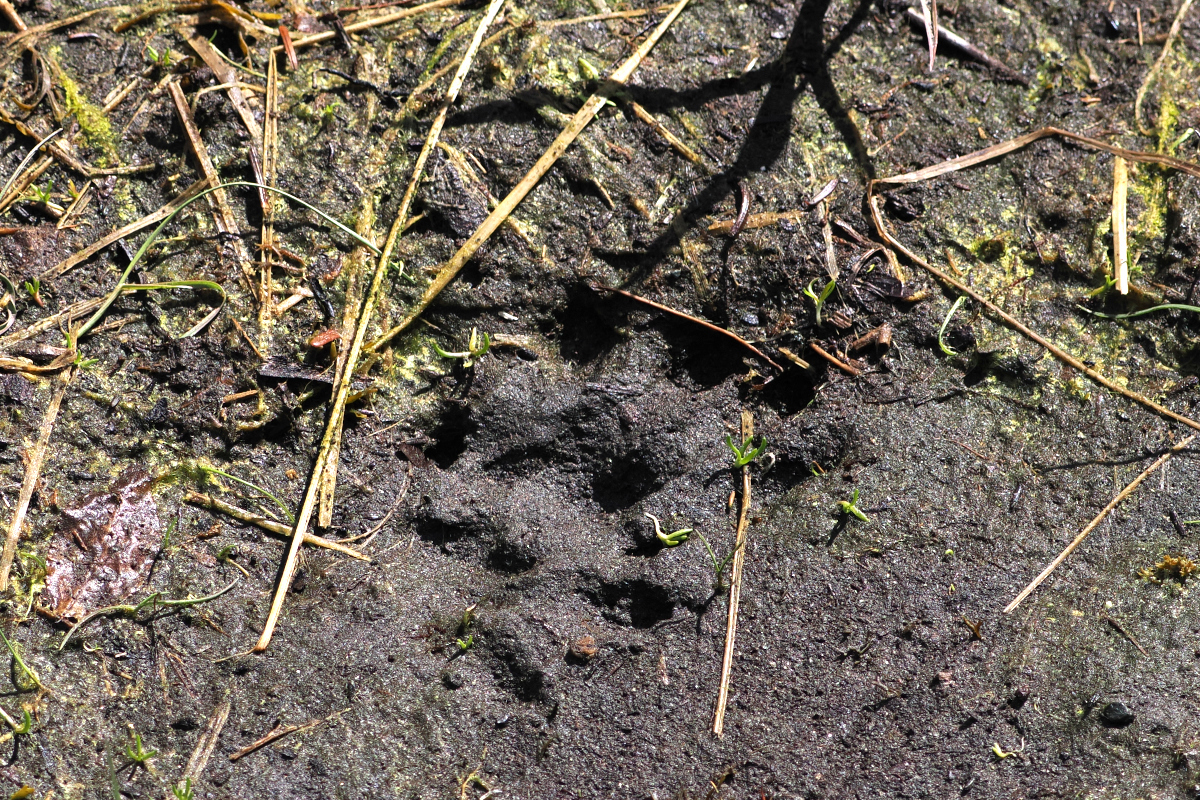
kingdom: Animalia
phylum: Chordata
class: Mammalia
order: Carnivora
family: Mustelidae
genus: Lontra
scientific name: Lontra canadensis
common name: North american river otter
